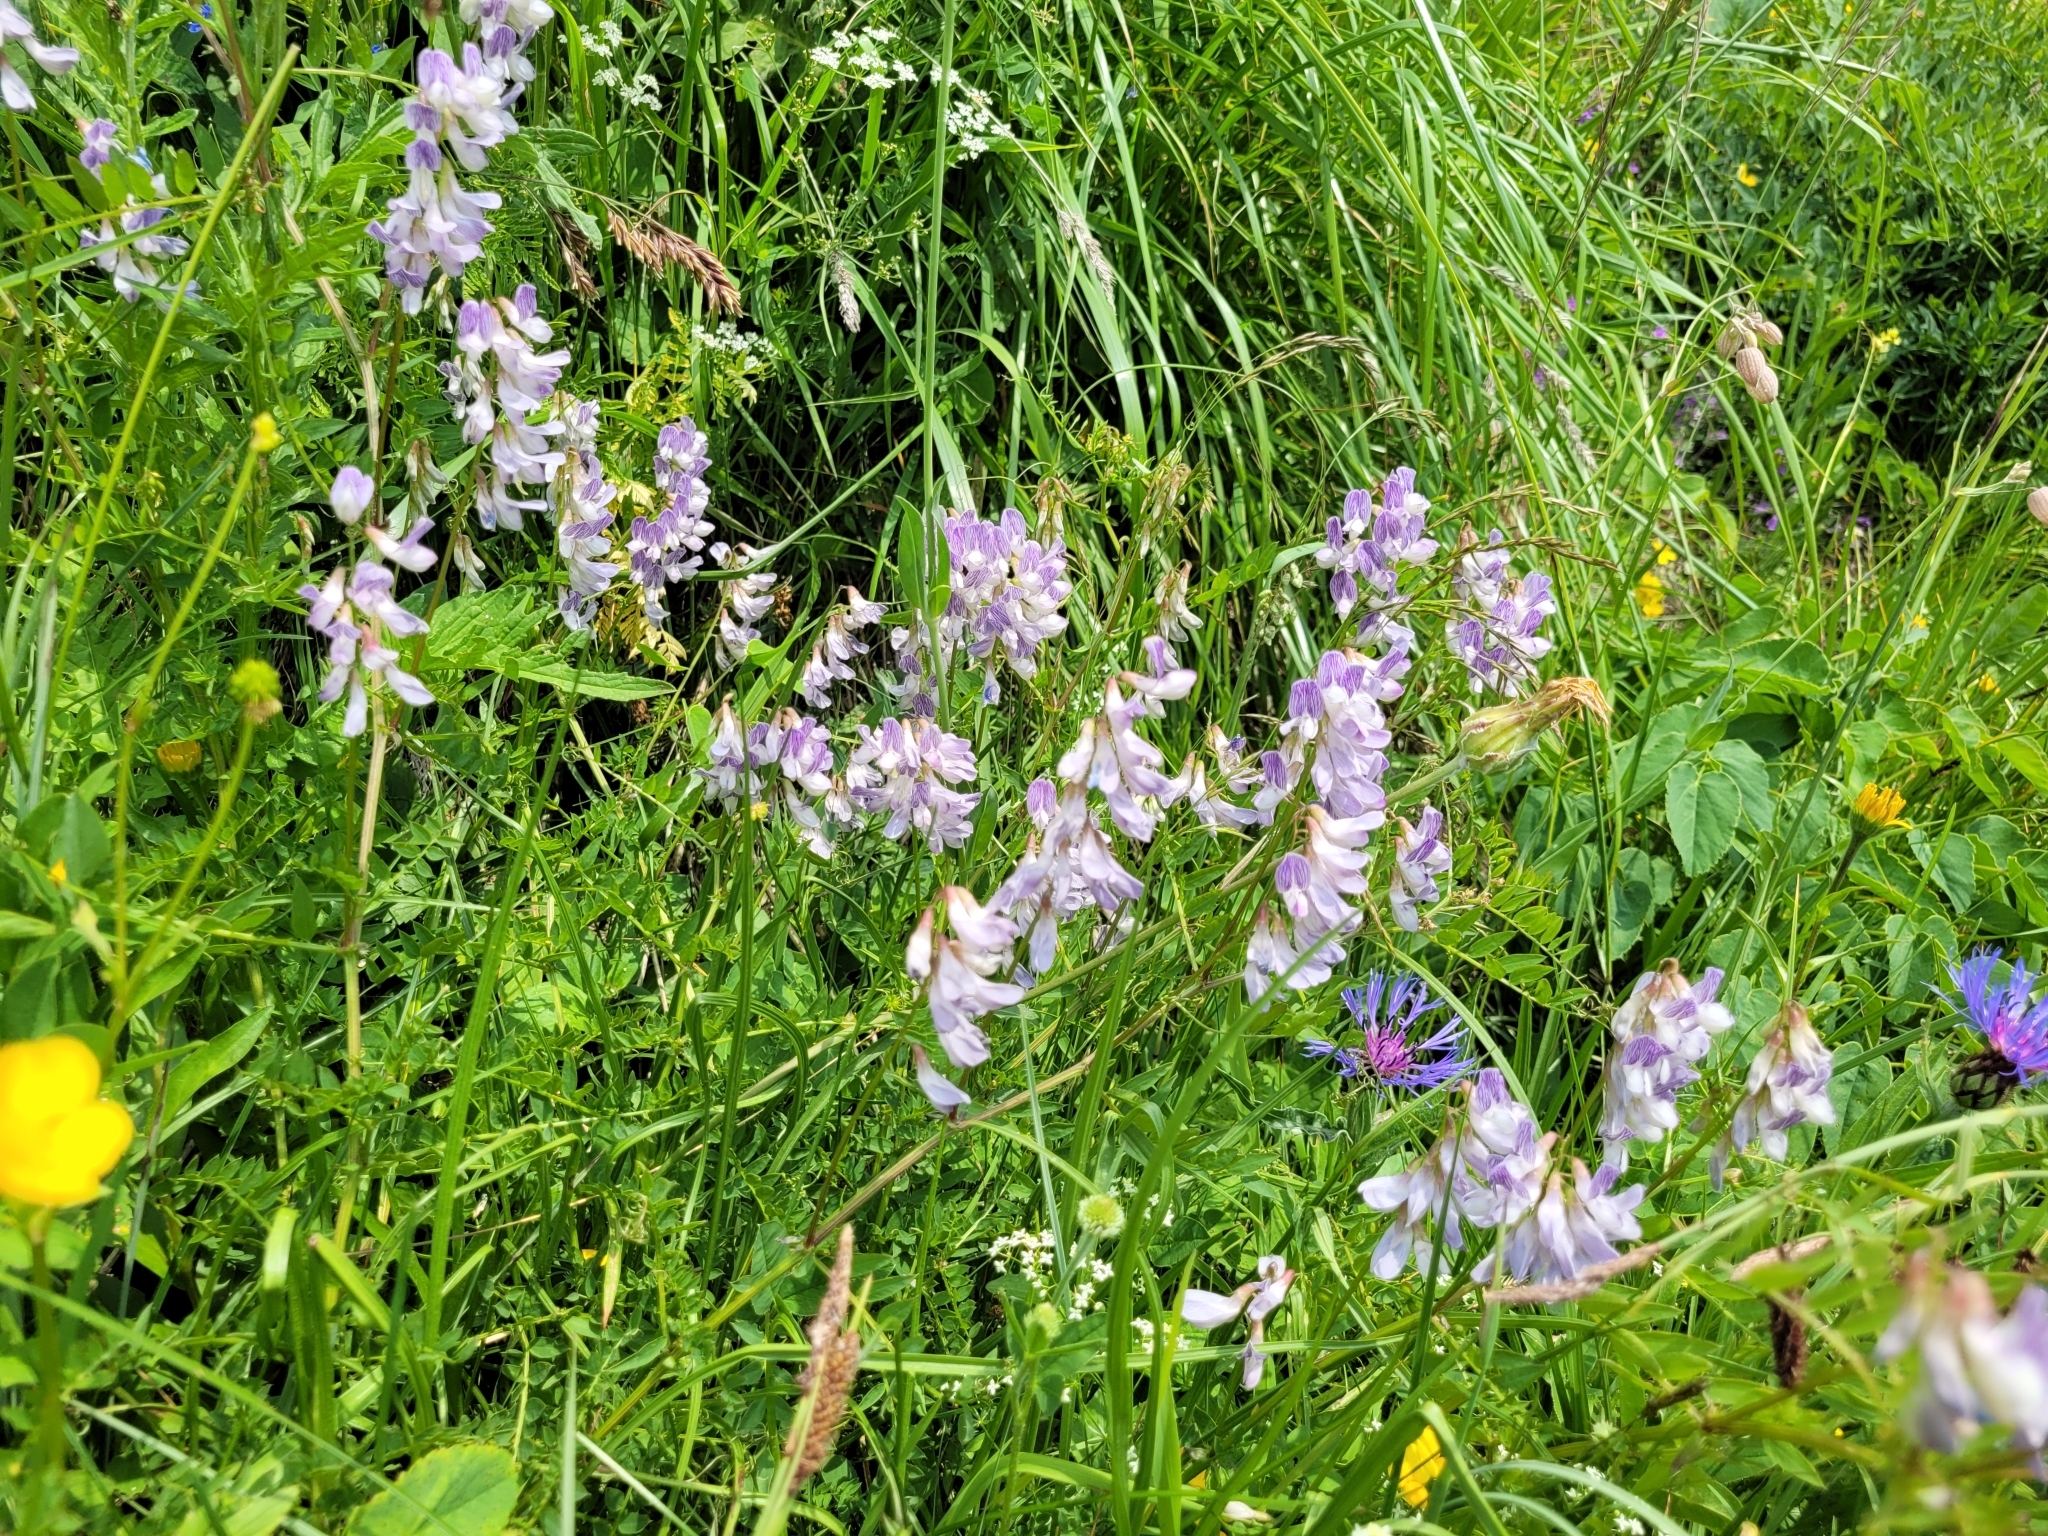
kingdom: Plantae
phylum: Tracheophyta
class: Magnoliopsida
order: Fabales
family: Fabaceae
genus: Vicia
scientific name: Vicia sylvatica
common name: Wood vetch
